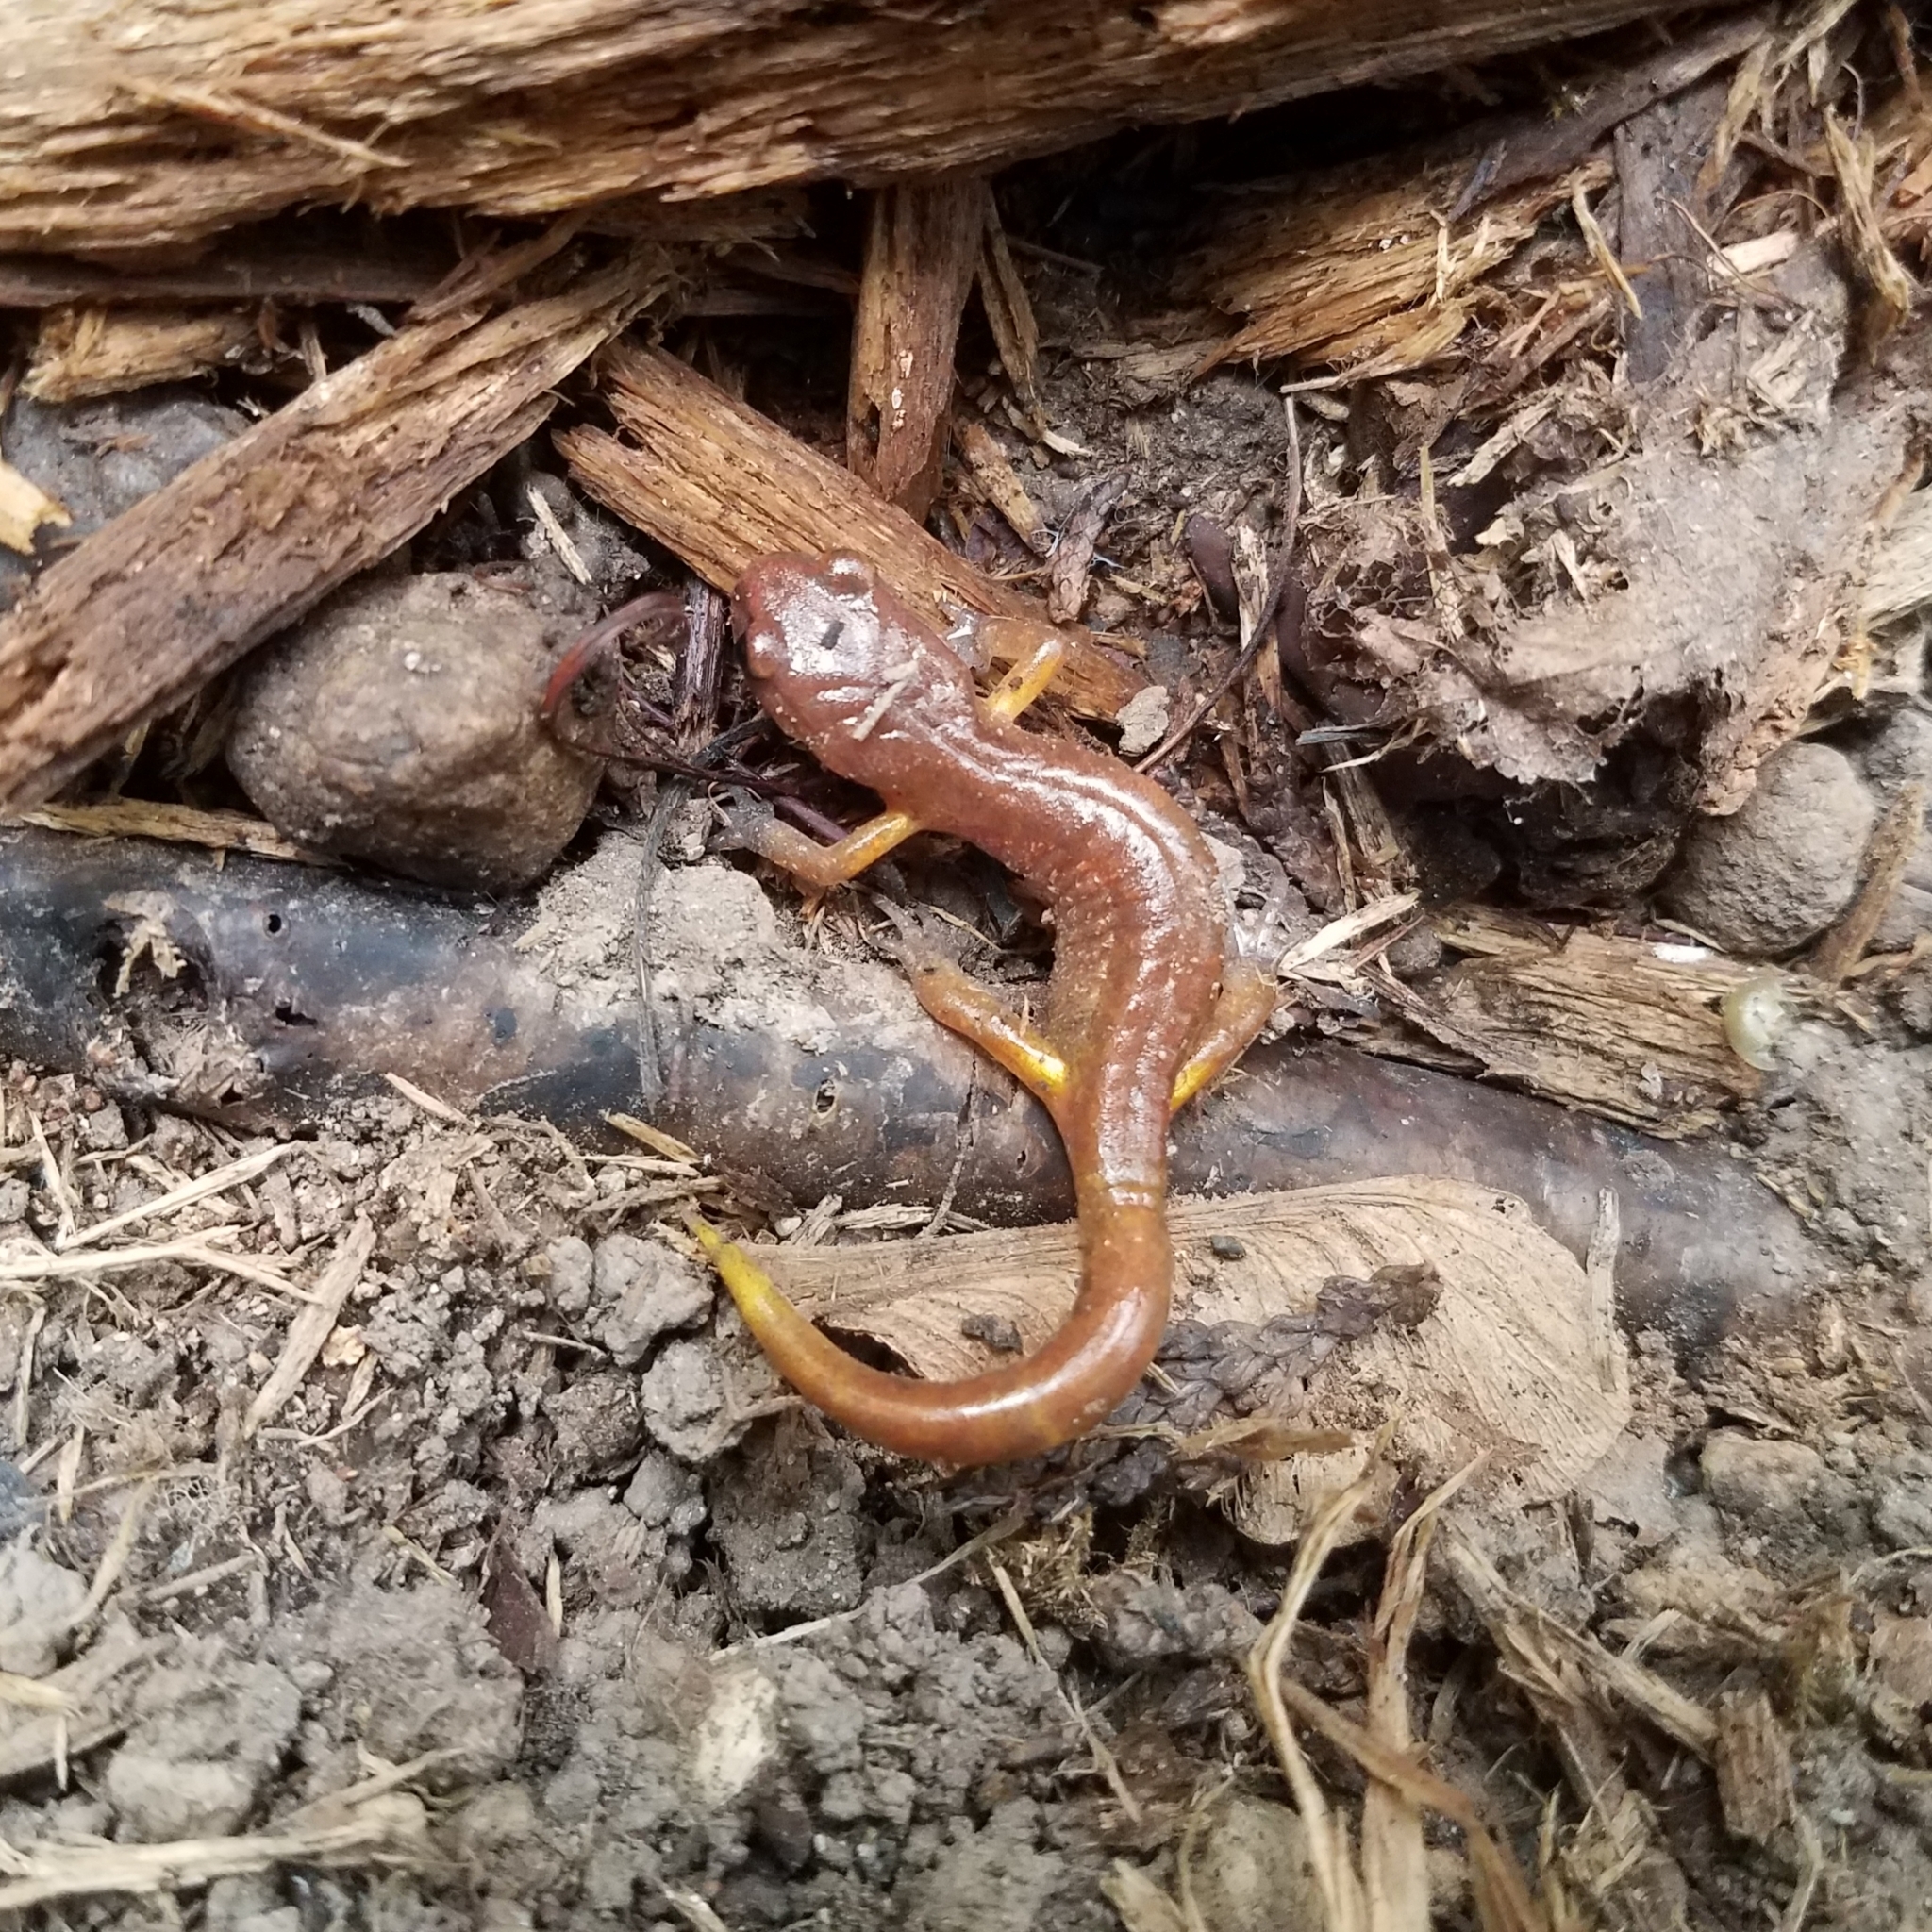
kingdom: Animalia
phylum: Chordata
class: Amphibia
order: Caudata
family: Plethodontidae
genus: Ensatina
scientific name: Ensatina eschscholtzii
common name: Ensatina
